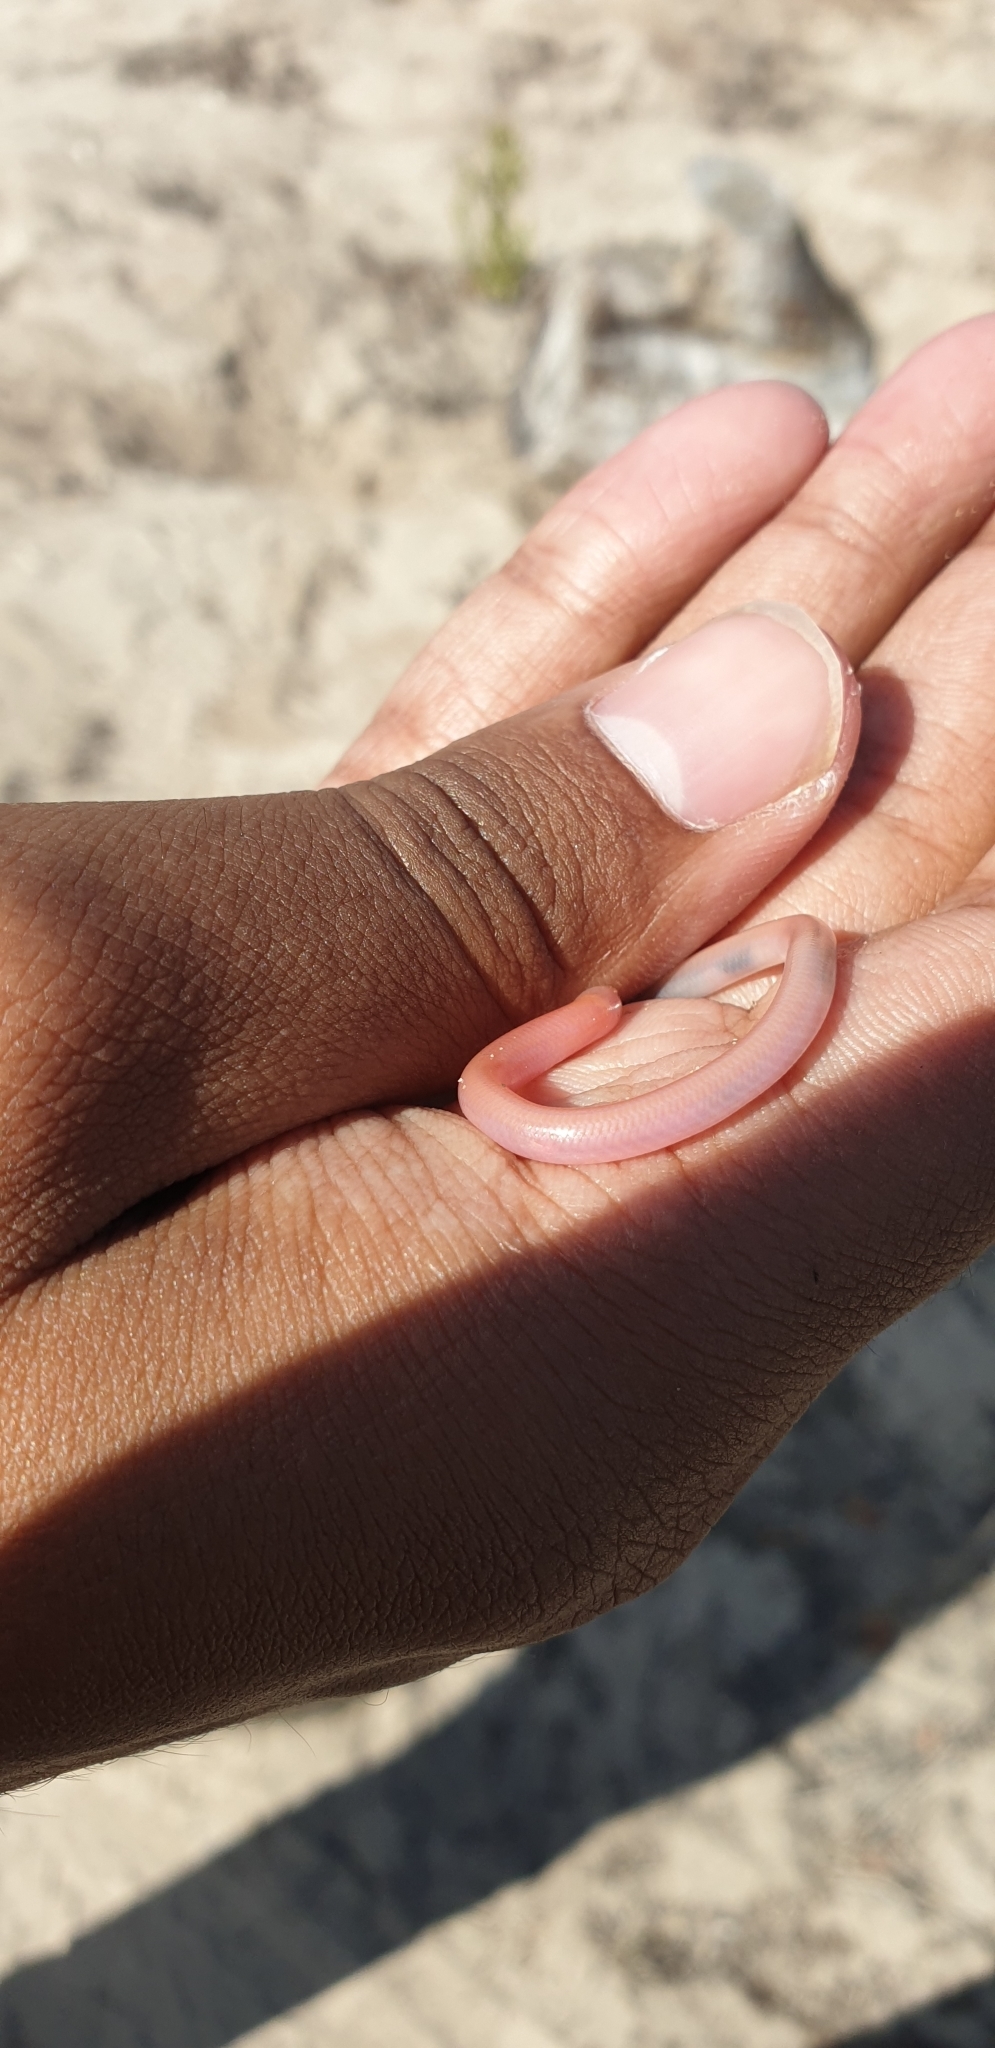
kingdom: Animalia
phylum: Chordata
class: Squamata
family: Scincidae
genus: Typhlosaurus
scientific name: Typhlosaurus caecus
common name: Cuvier's legless skink
